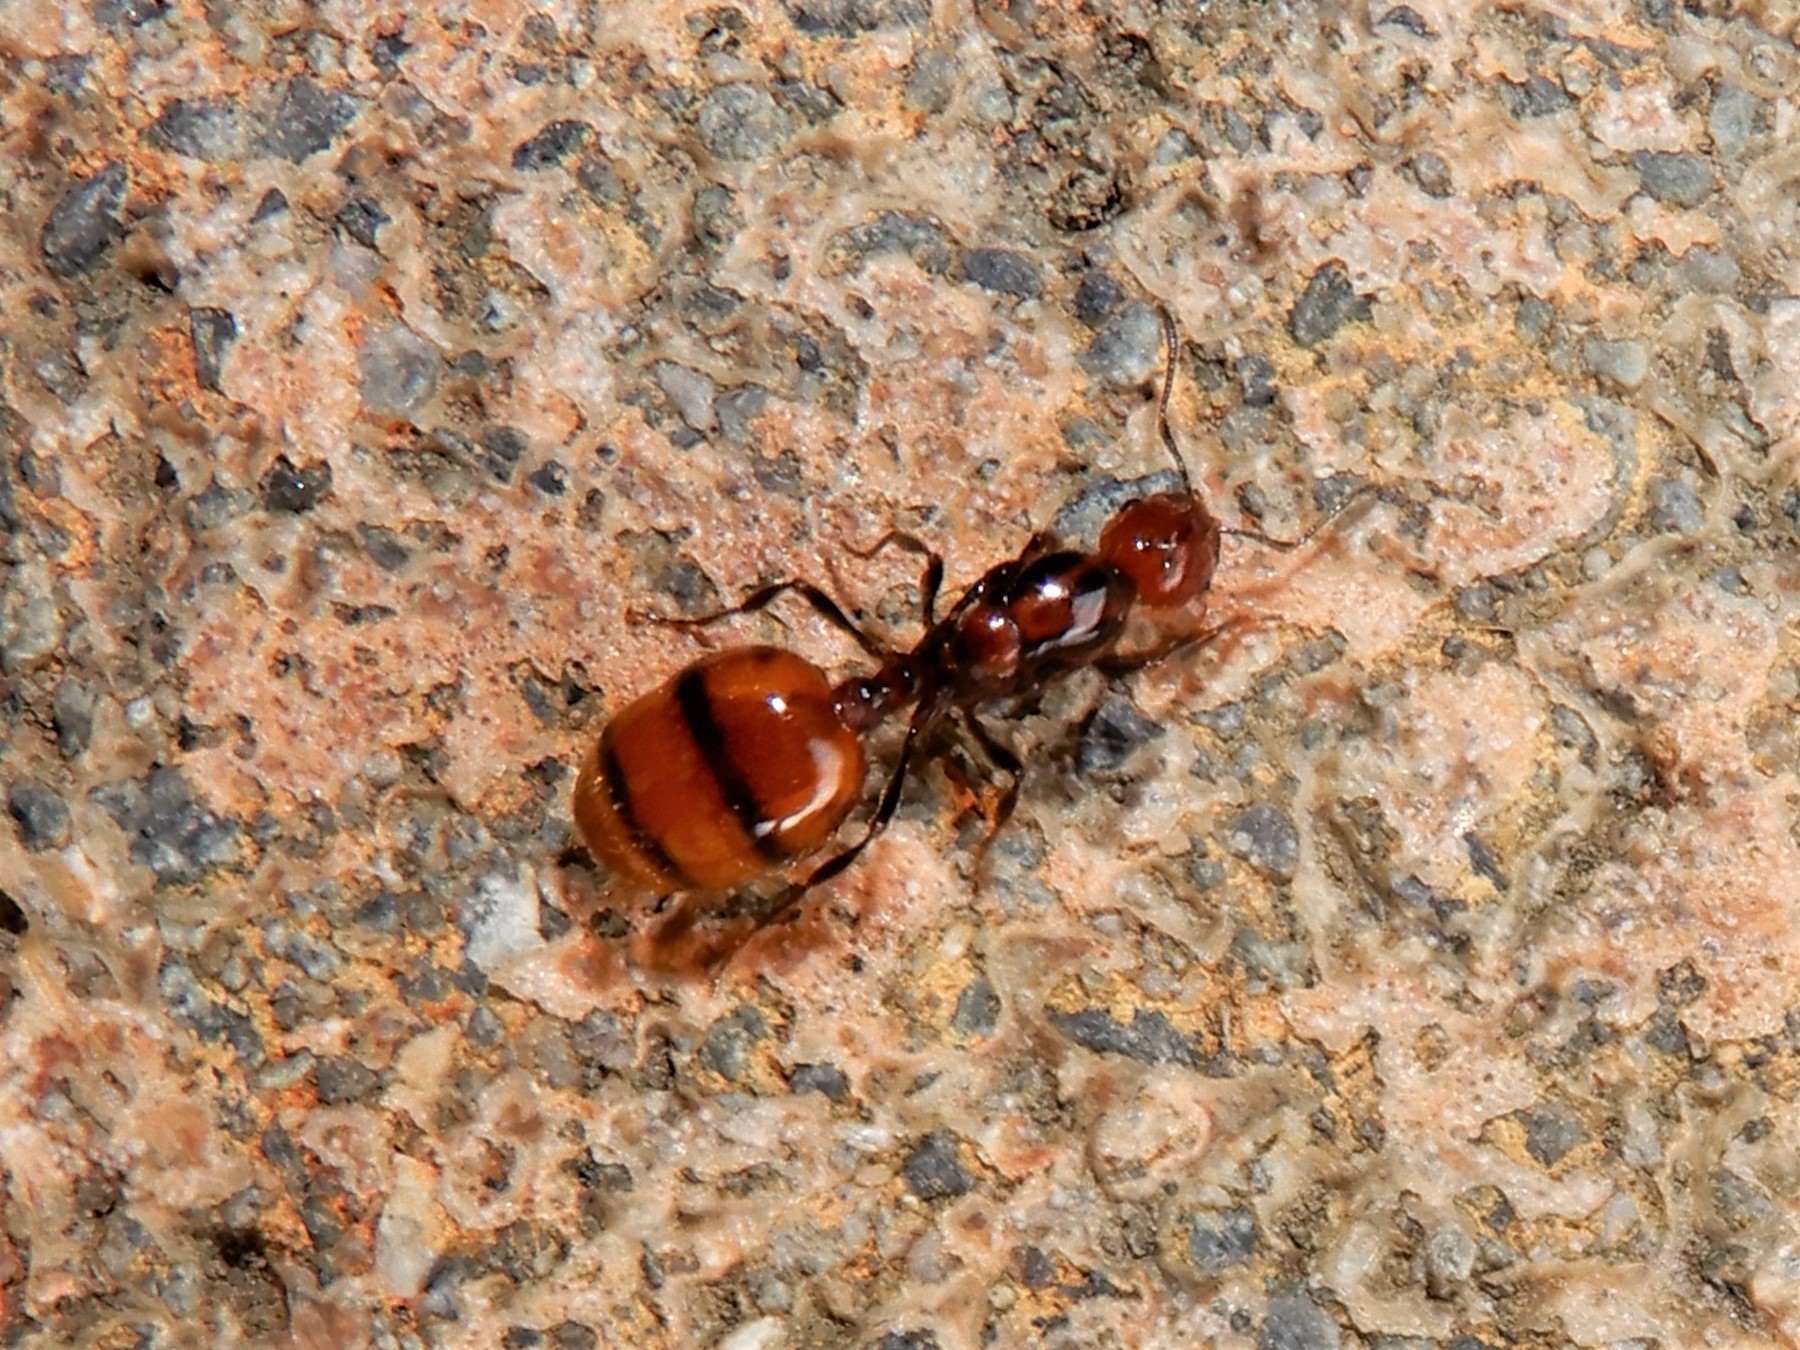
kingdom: Animalia
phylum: Arthropoda
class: Insecta
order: Hymenoptera
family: Formicidae
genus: Monomorium
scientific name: Monomorium antarcticum
